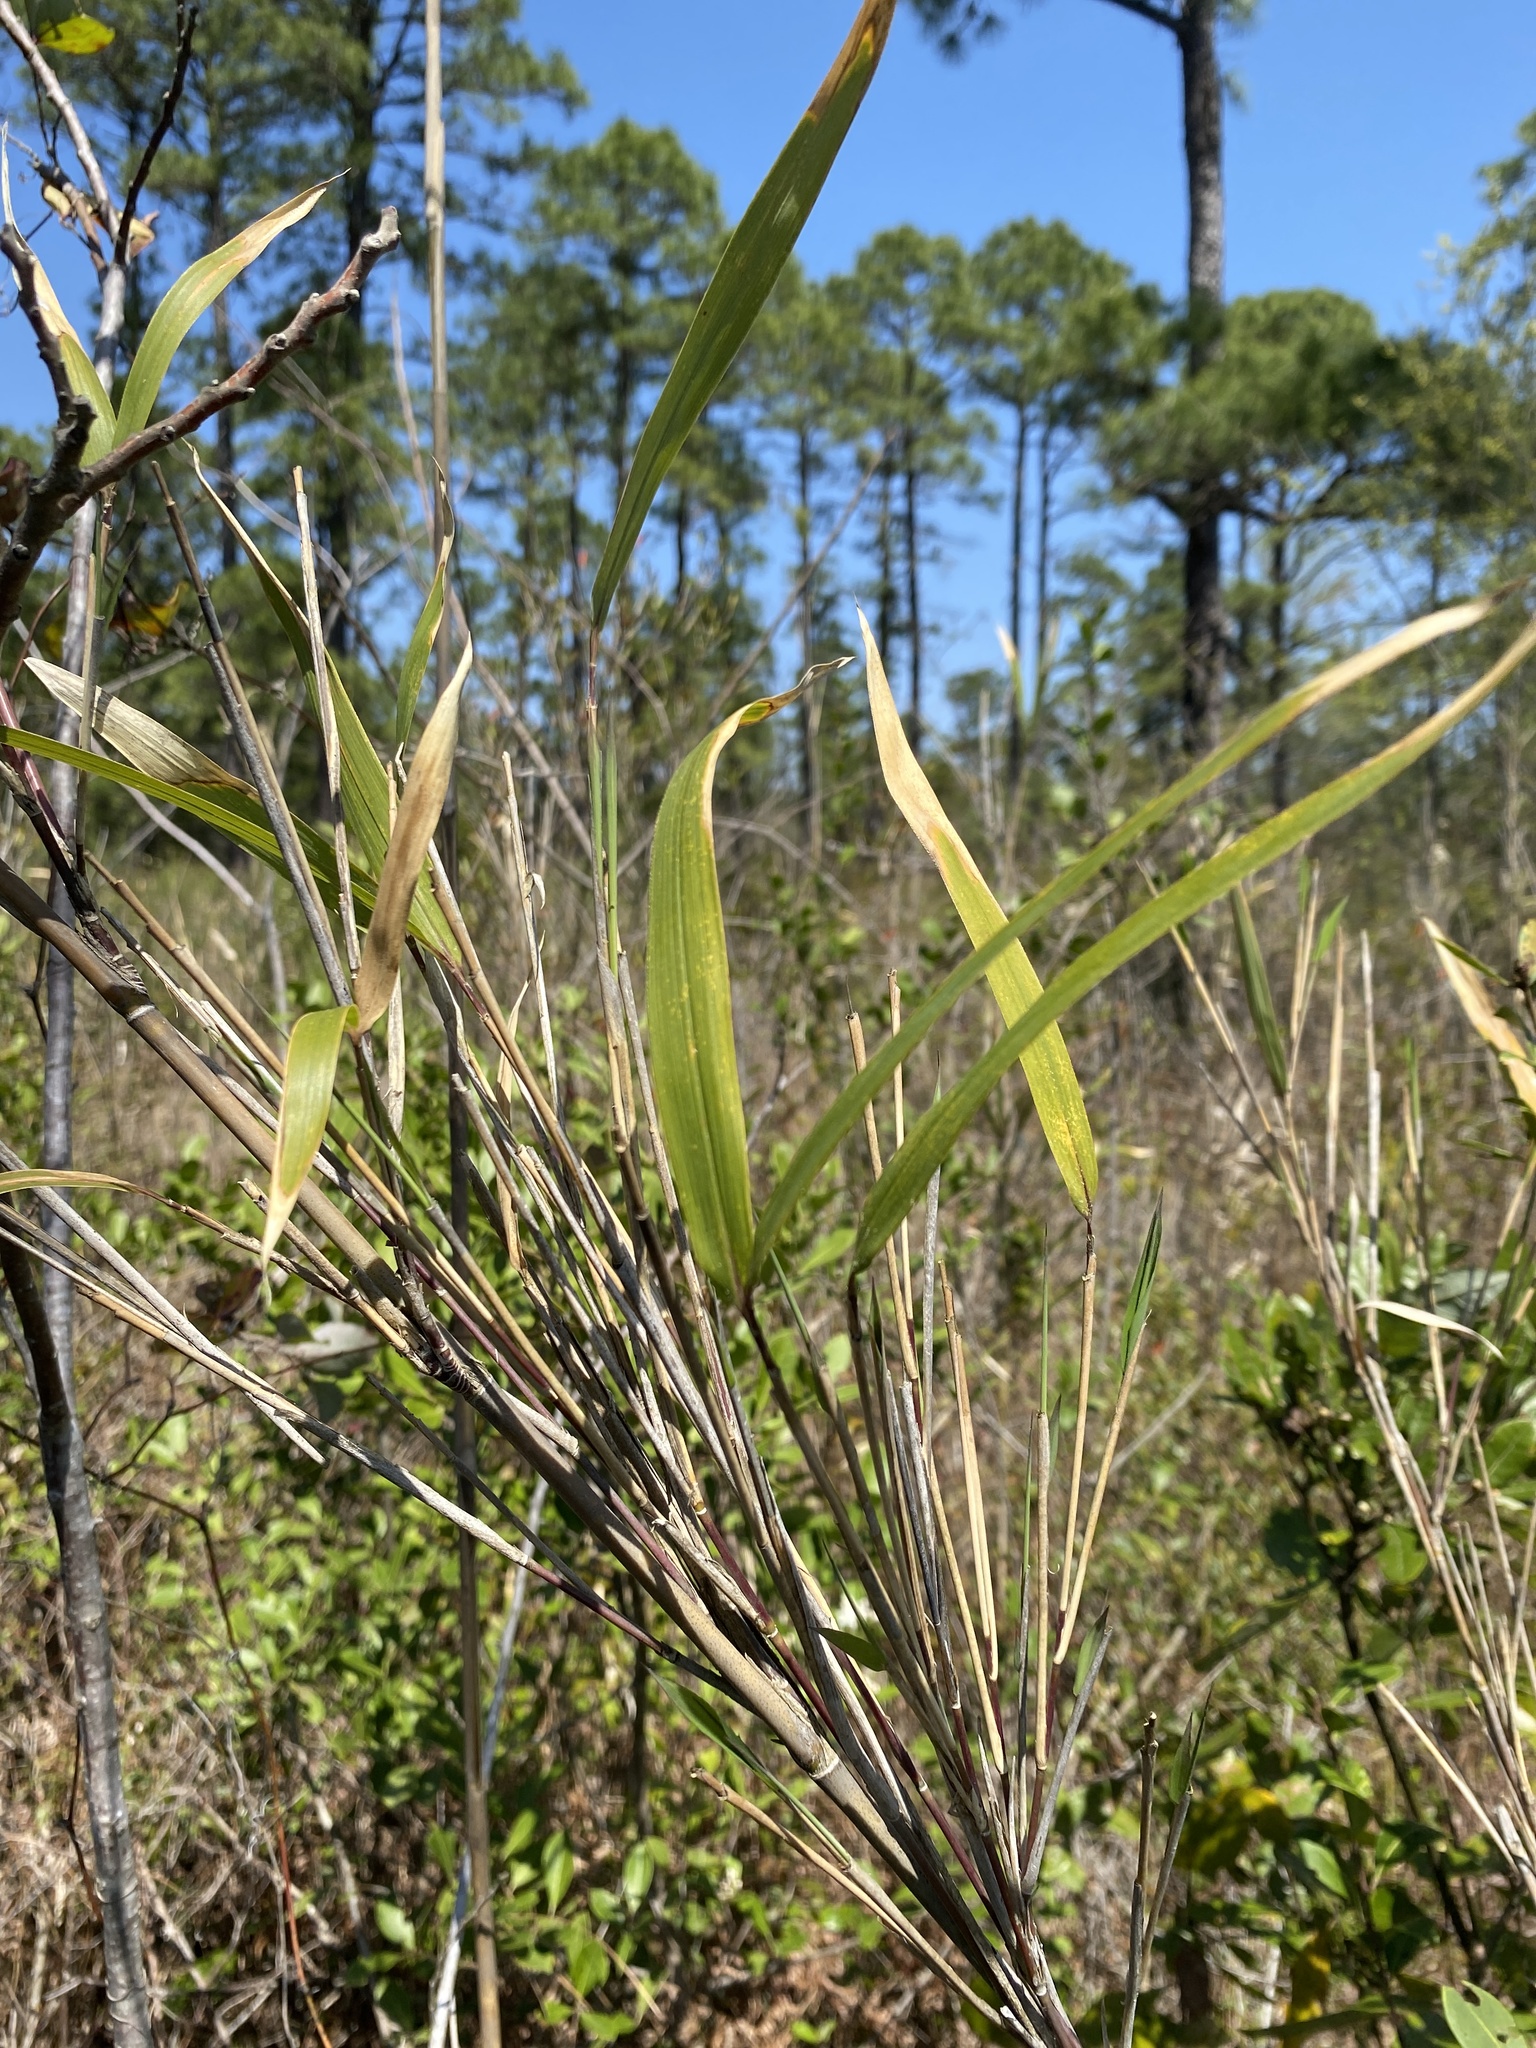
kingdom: Plantae
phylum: Tracheophyta
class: Liliopsida
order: Poales
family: Poaceae
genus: Arundinaria
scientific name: Arundinaria tecta
